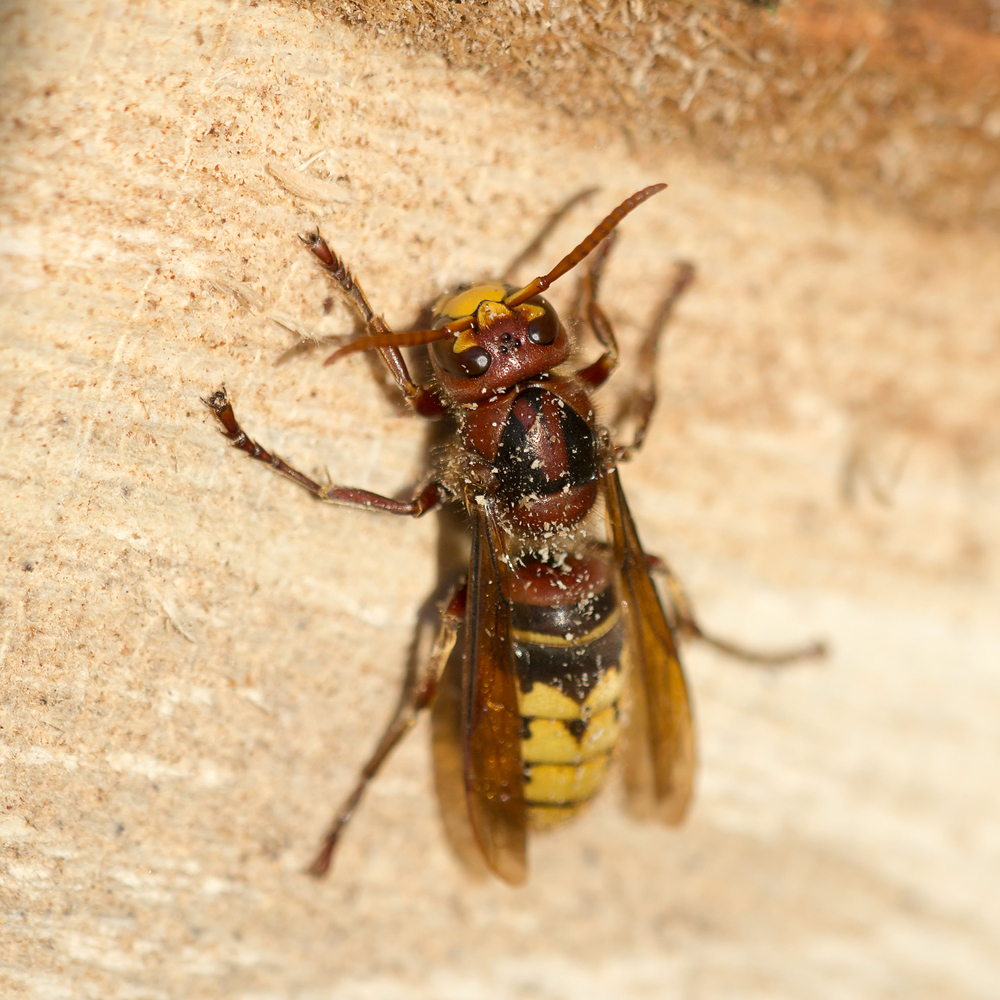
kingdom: Animalia
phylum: Arthropoda
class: Insecta
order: Hymenoptera
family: Vespidae
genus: Vespa
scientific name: Vespa crabro
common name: Hornet
